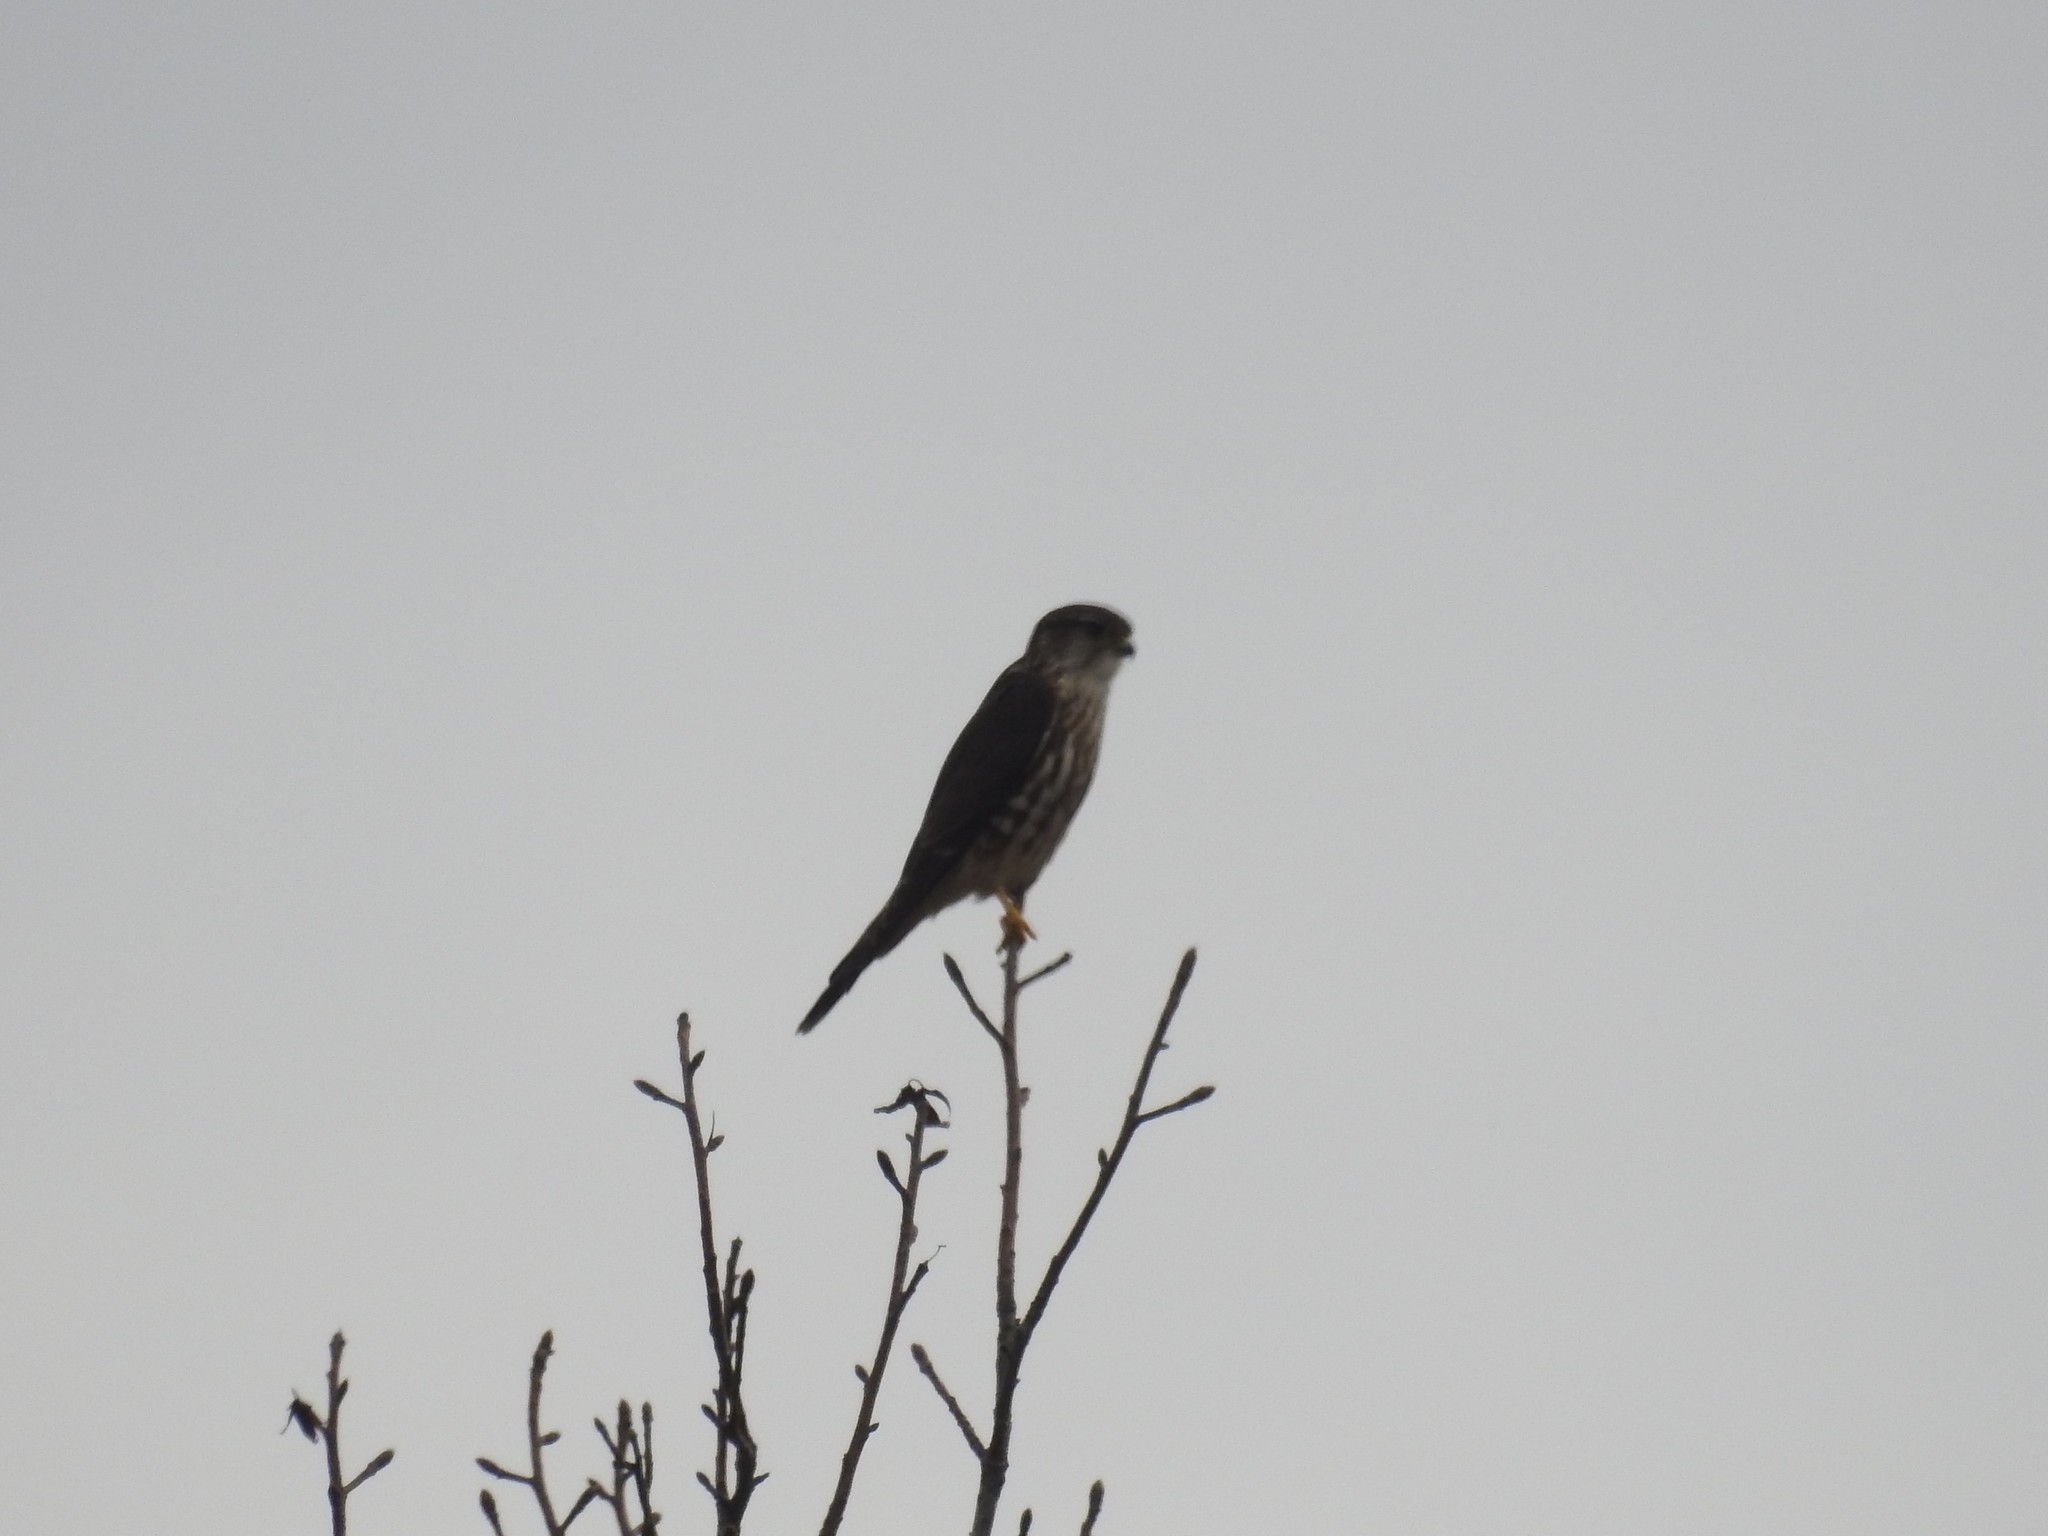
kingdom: Animalia
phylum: Chordata
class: Aves
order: Falconiformes
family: Falconidae
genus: Falco
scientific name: Falco columbarius
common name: Merlin
